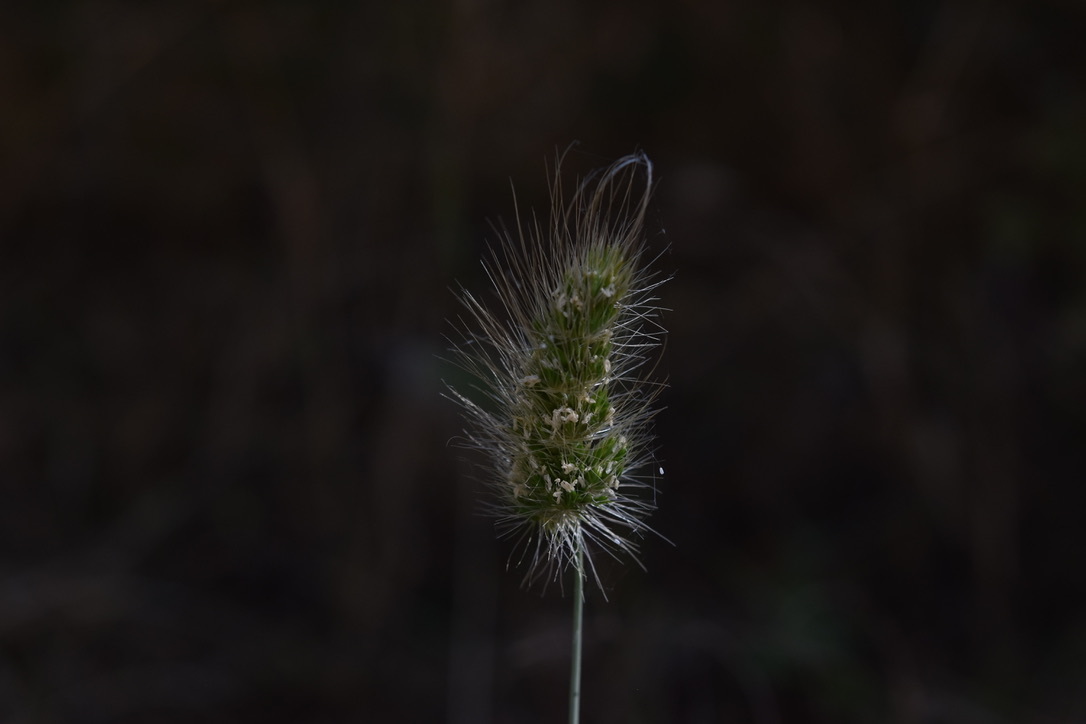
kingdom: Plantae
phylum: Tracheophyta
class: Liliopsida
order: Poales
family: Poaceae
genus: Cynosurus
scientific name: Cynosurus echinatus
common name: Rough dog's-tail
